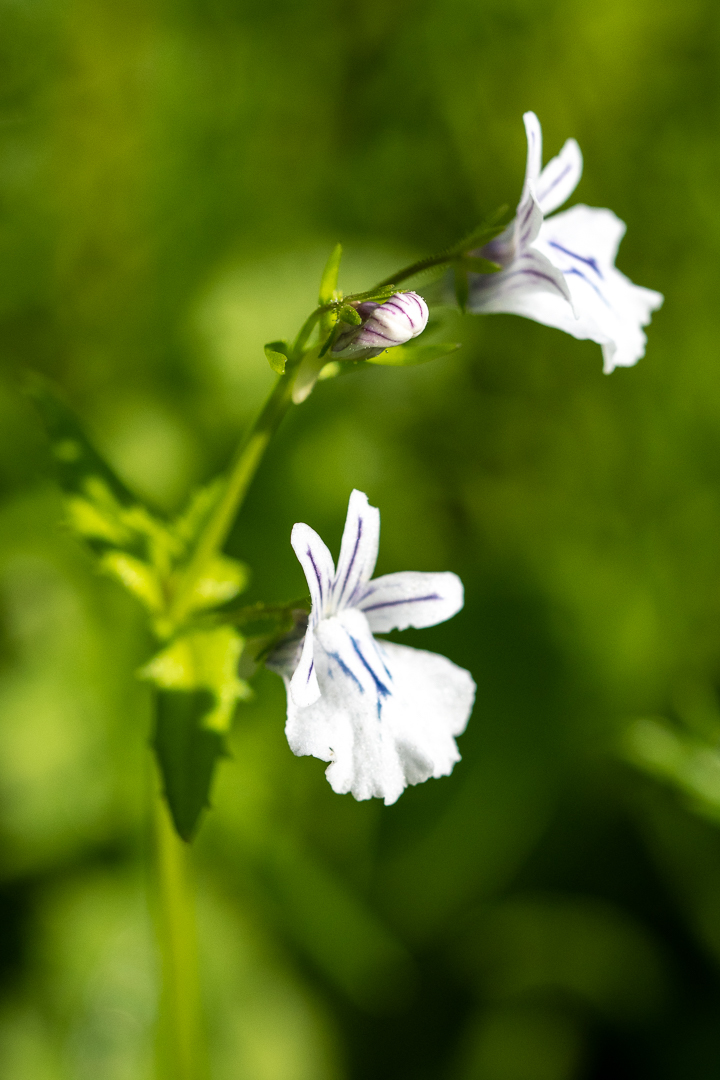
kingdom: Plantae
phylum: Tracheophyta
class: Magnoliopsida
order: Lamiales
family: Scrophulariaceae
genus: Nemesia
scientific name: Nemesia macrocarpa
